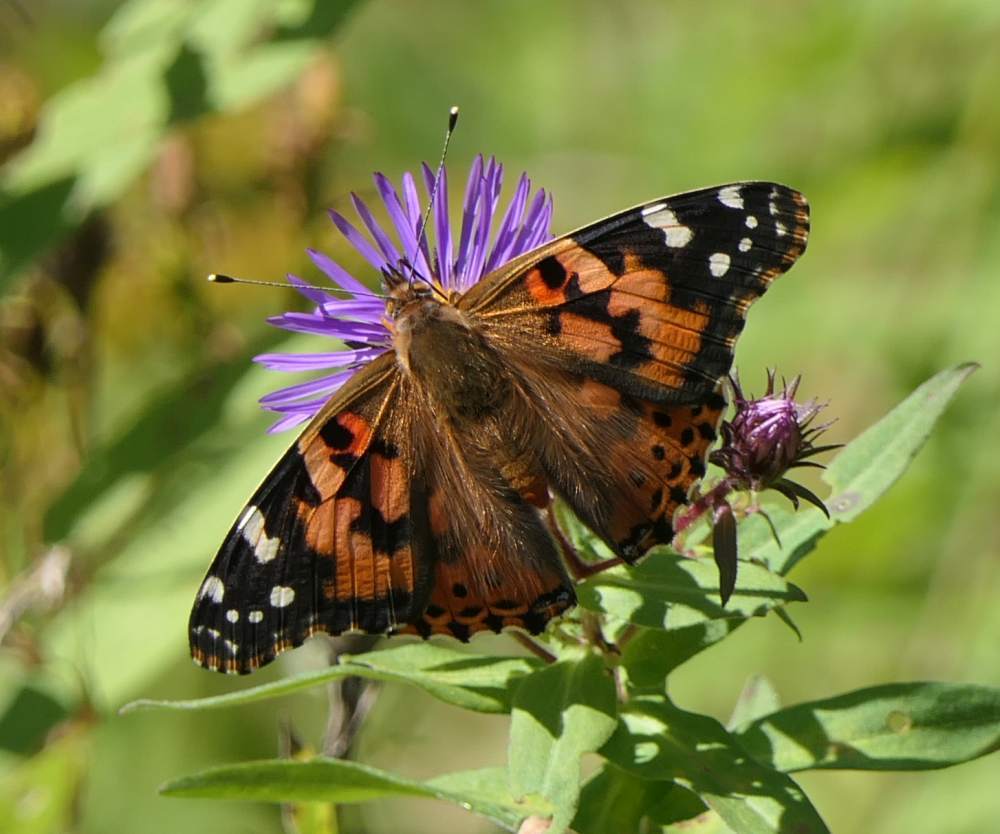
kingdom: Animalia
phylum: Arthropoda
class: Insecta
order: Lepidoptera
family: Nymphalidae
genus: Vanessa
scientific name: Vanessa cardui
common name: Painted lady
